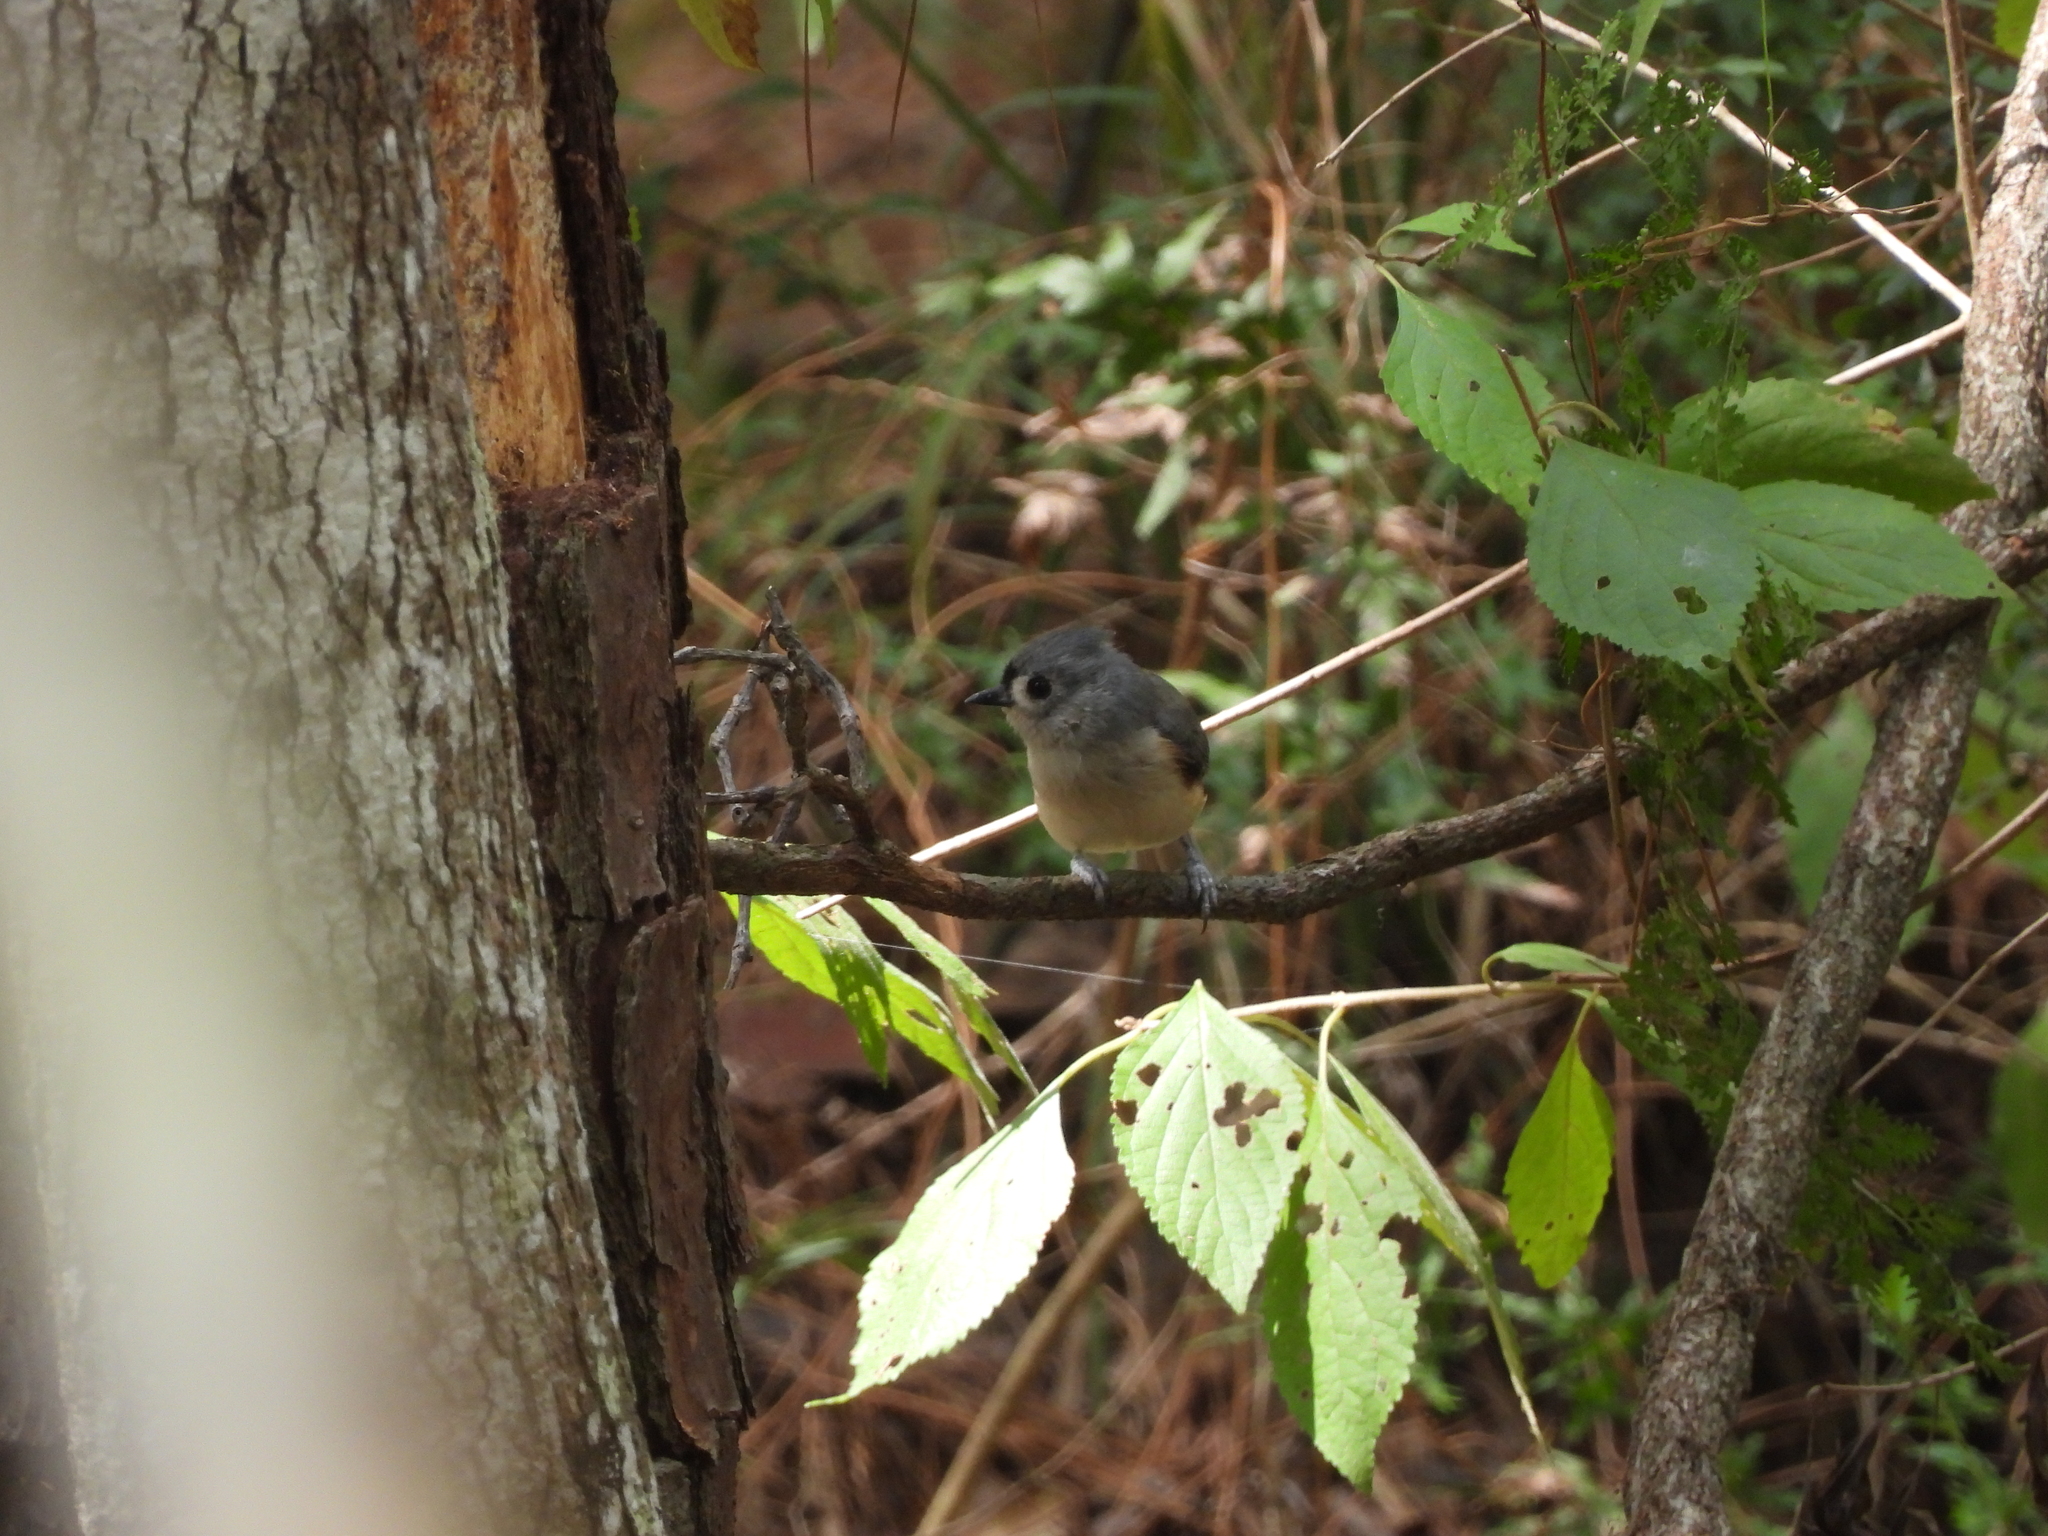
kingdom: Animalia
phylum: Chordata
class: Aves
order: Passeriformes
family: Paridae
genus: Baeolophus
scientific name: Baeolophus bicolor
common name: Tufted titmouse
